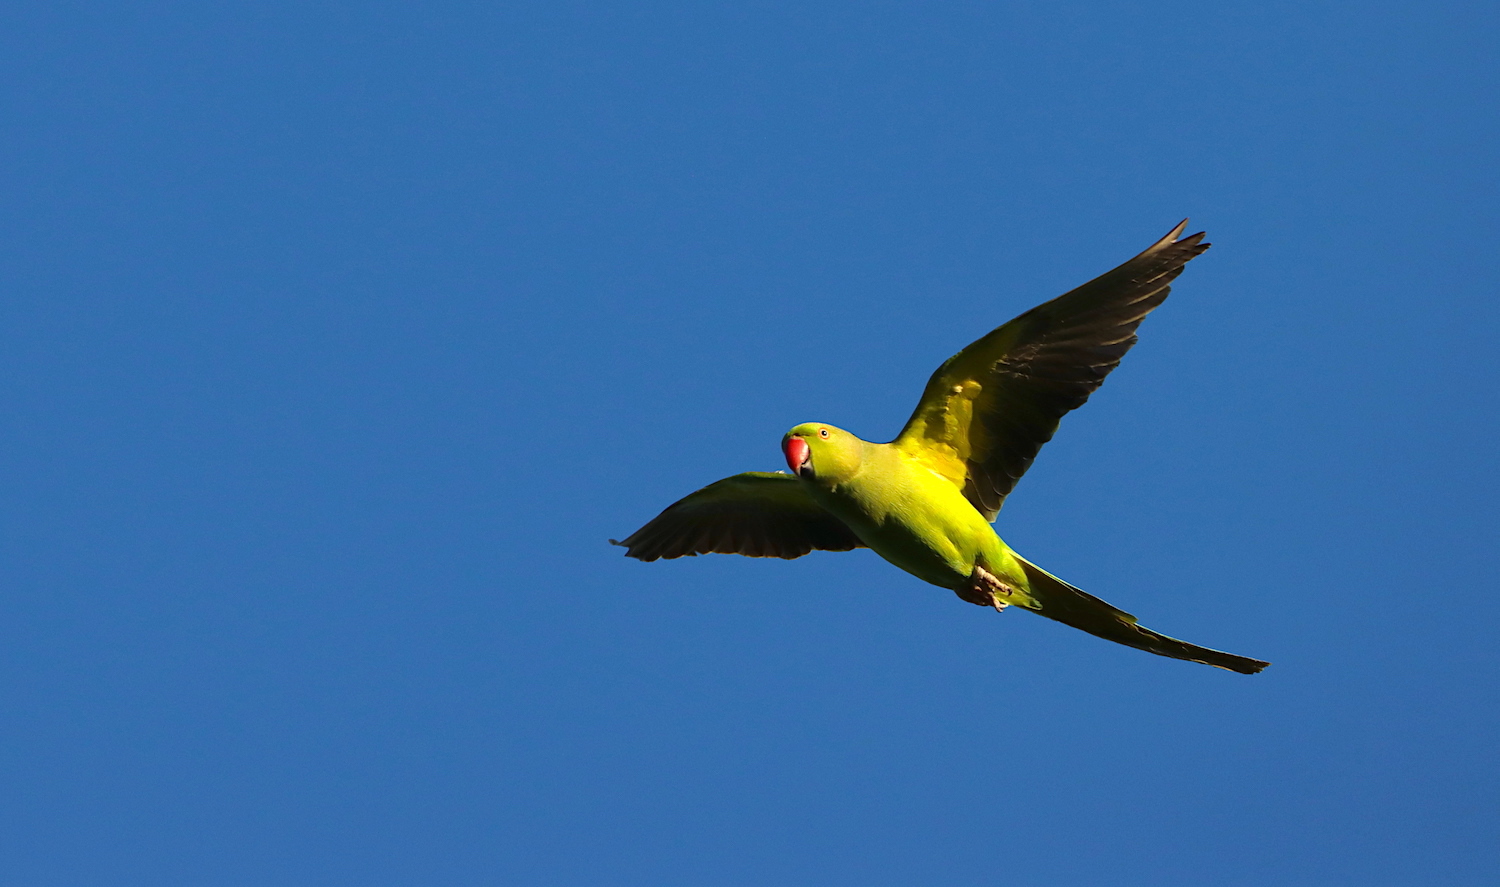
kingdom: Animalia
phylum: Chordata
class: Aves
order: Psittaciformes
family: Psittacidae
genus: Psittacula
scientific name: Psittacula krameri
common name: Rose-ringed parakeet
